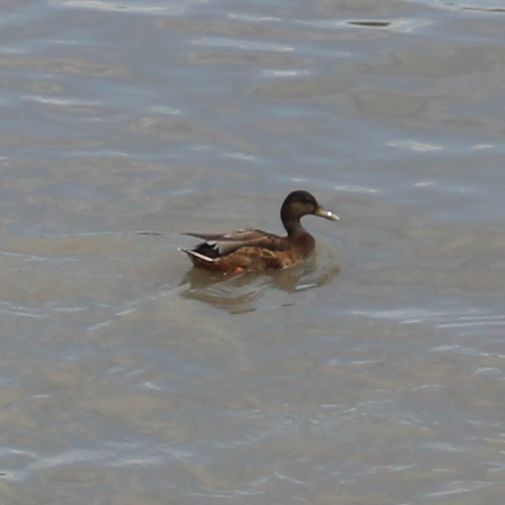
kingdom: Animalia
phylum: Chordata
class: Aves
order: Anseriformes
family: Anatidae
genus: Anas
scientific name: Anas platyrhynchos
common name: Mallard
